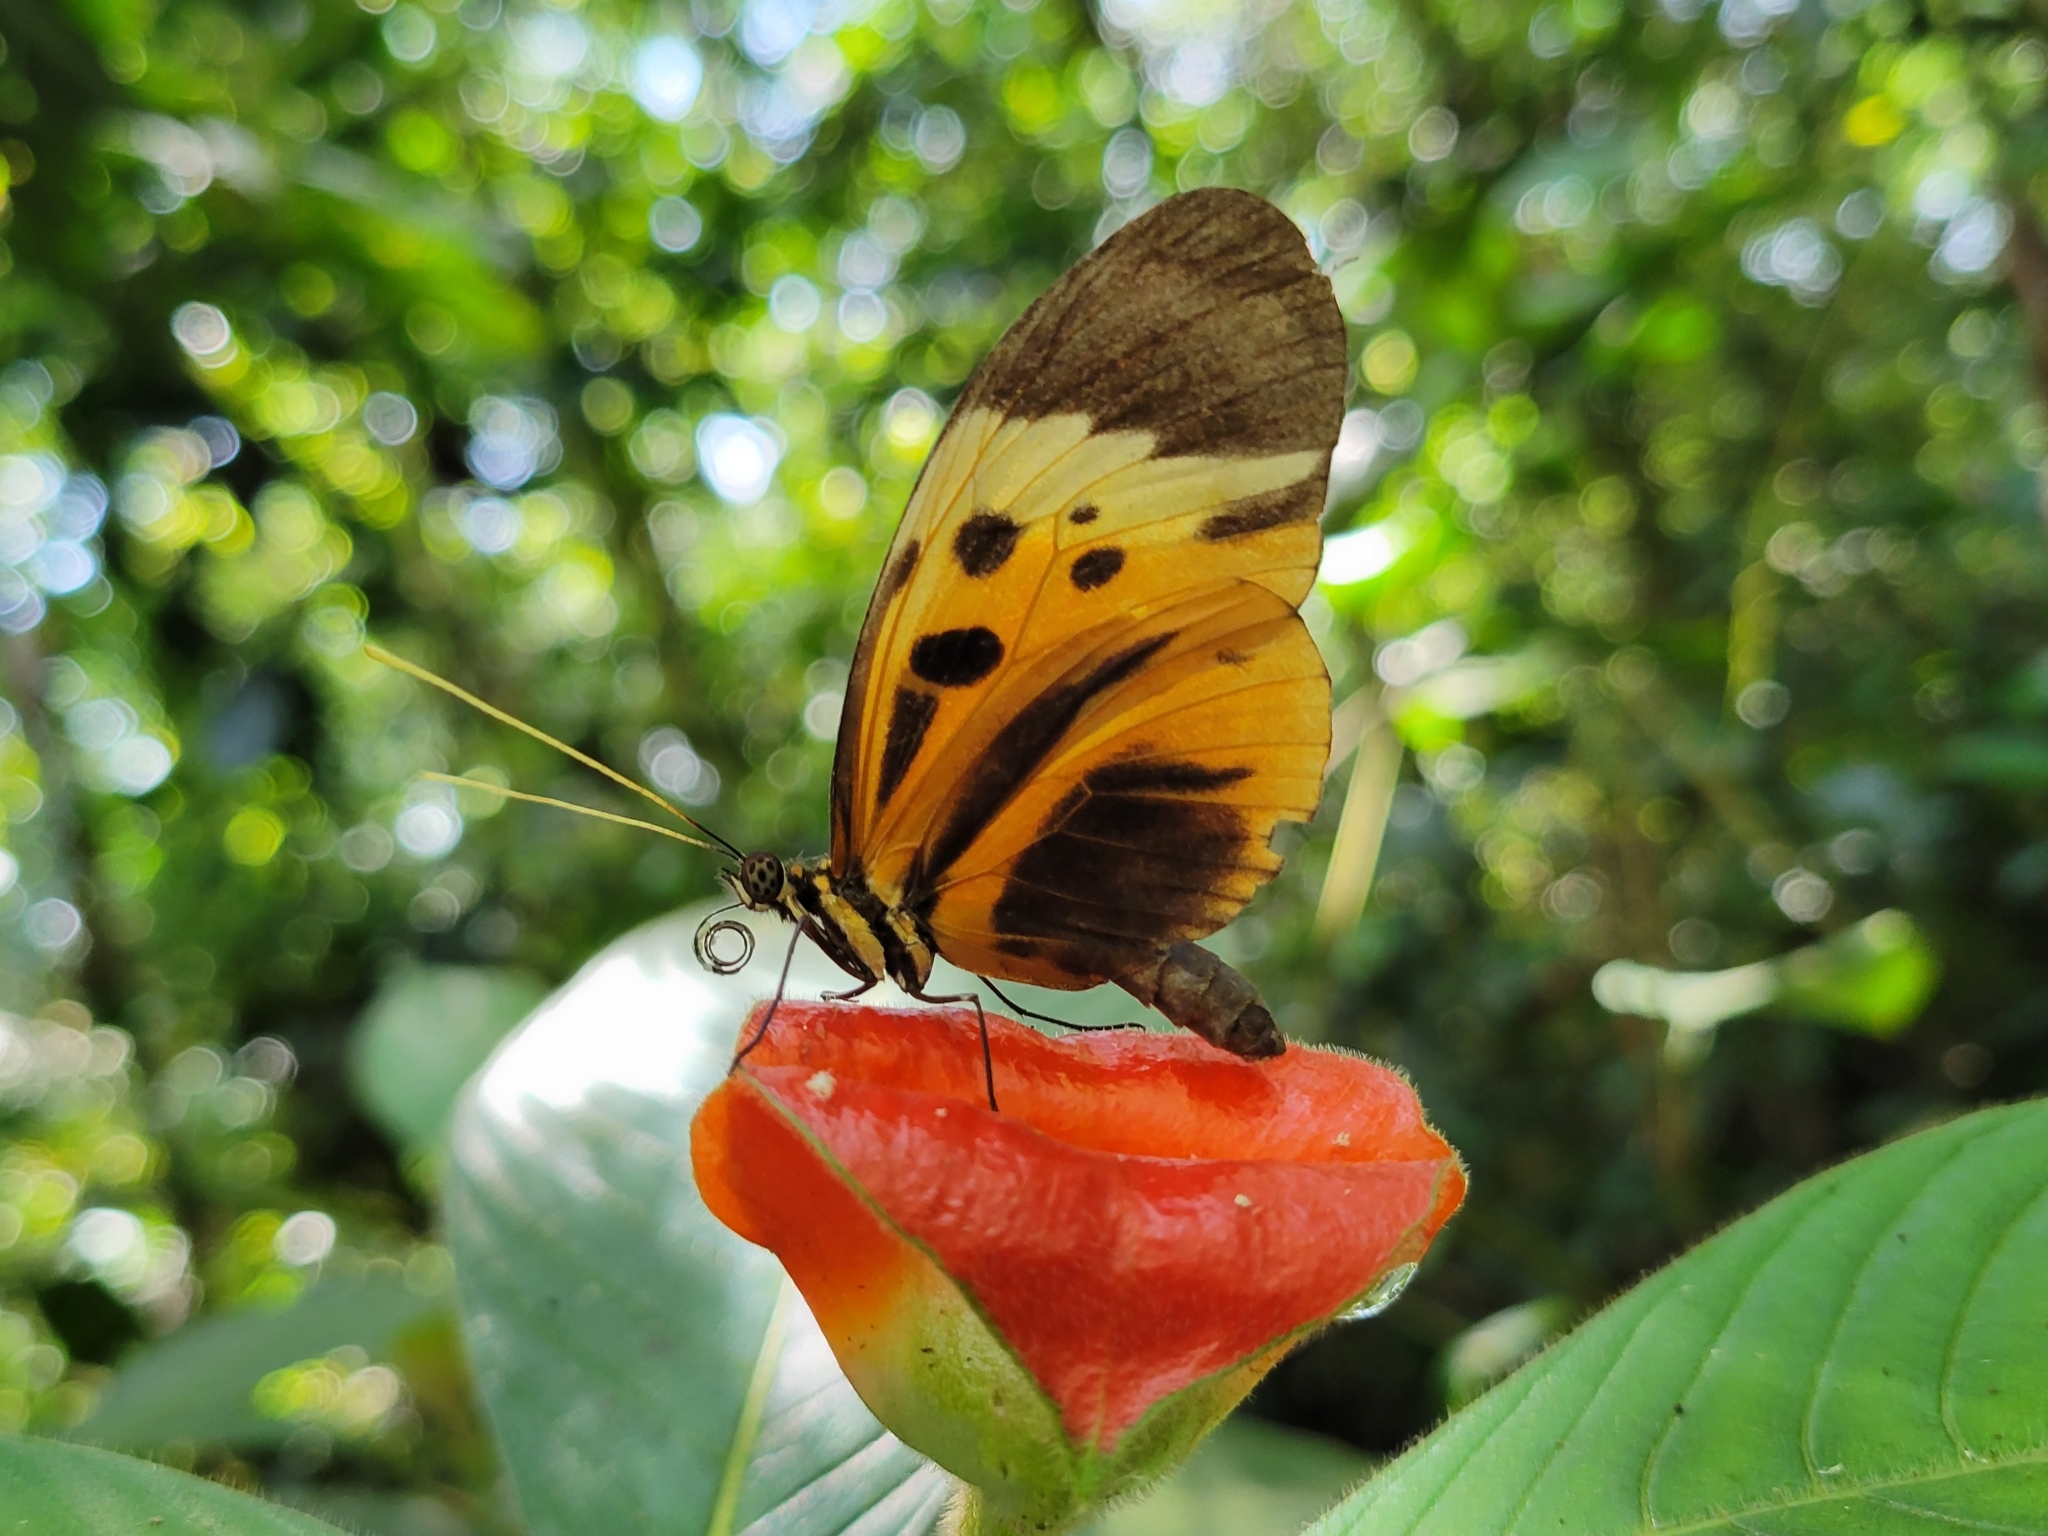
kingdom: Animalia
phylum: Arthropoda
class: Insecta
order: Lepidoptera
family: Nymphalidae
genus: Heliconius
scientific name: Heliconius numatus
